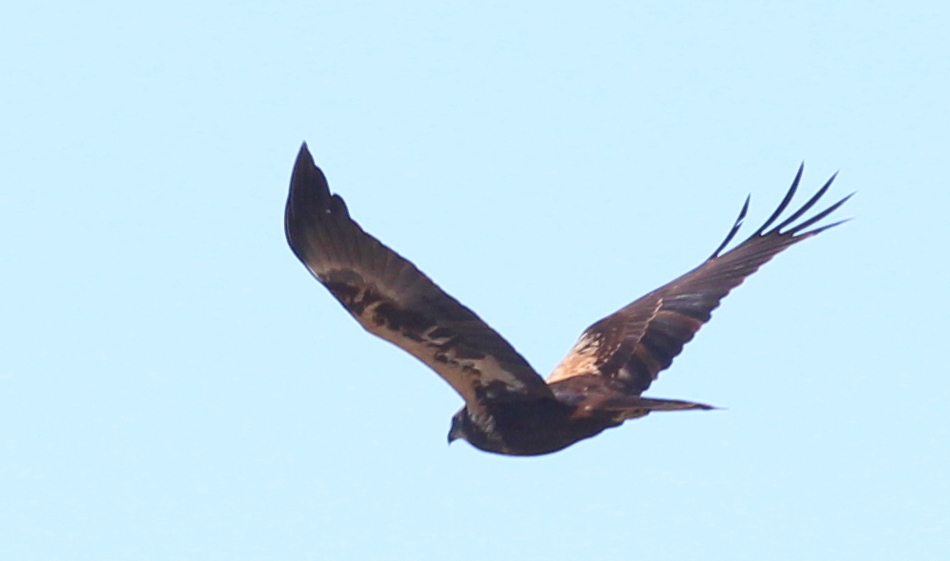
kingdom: Animalia
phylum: Chordata
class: Aves
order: Accipitriformes
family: Accipitridae
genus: Circus
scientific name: Circus aeruginosus
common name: Western marsh harrier
